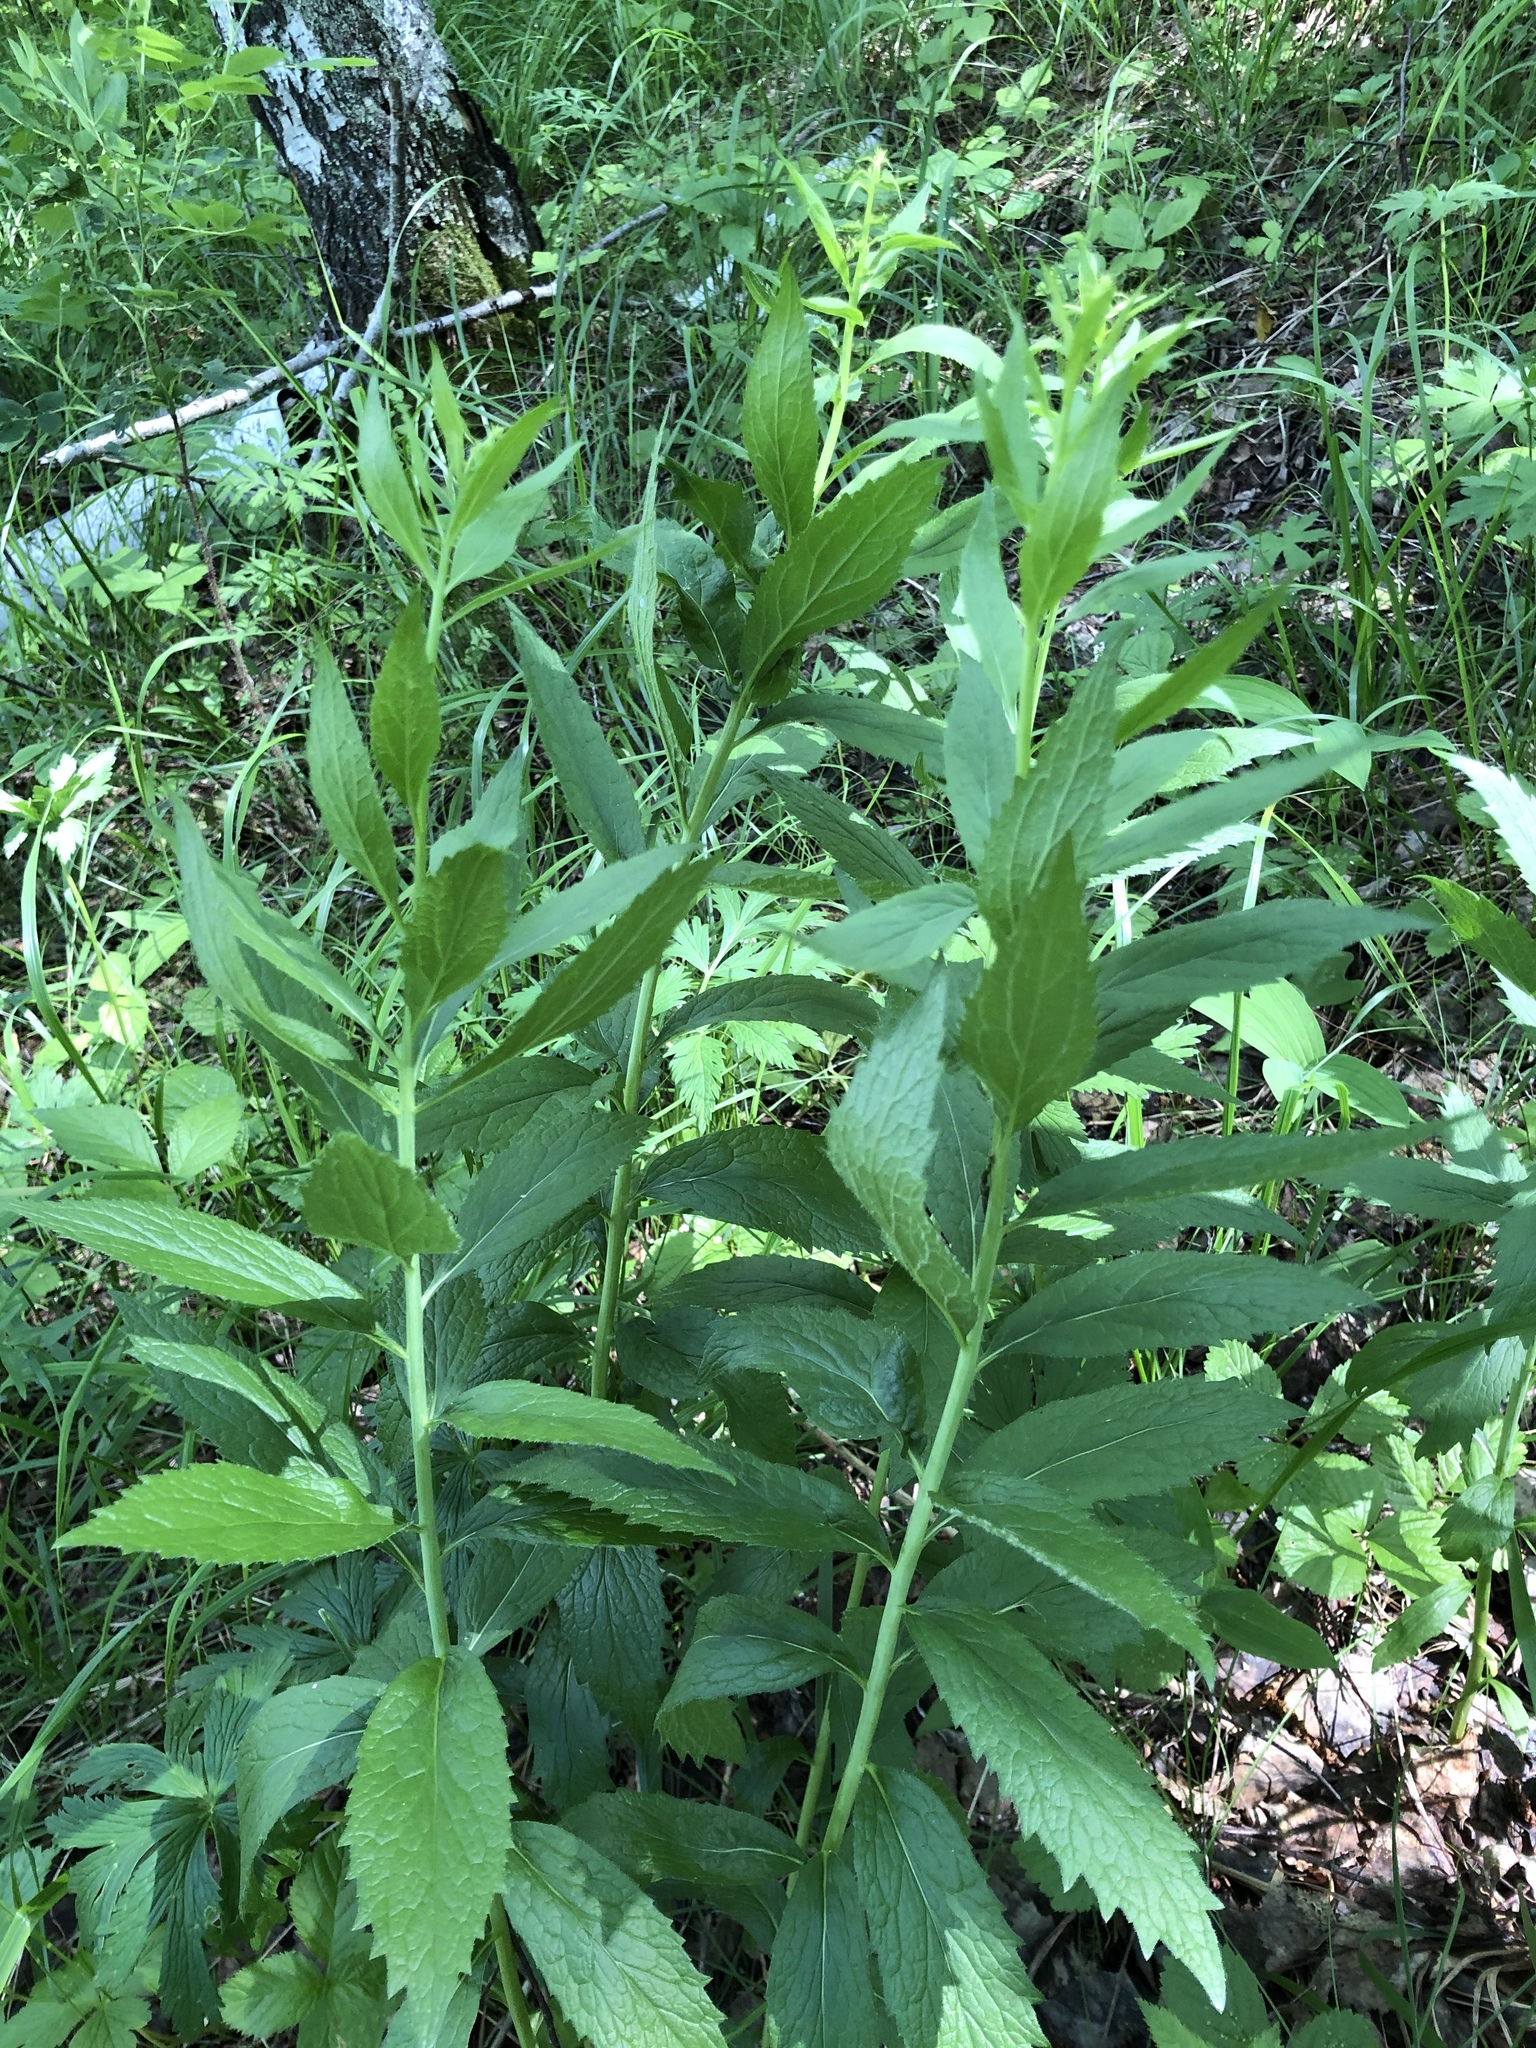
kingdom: Plantae
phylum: Tracheophyta
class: Magnoliopsida
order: Asterales
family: Campanulaceae
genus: Adenophora
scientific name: Adenophora liliifolia
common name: Lilyleaf ladybells
